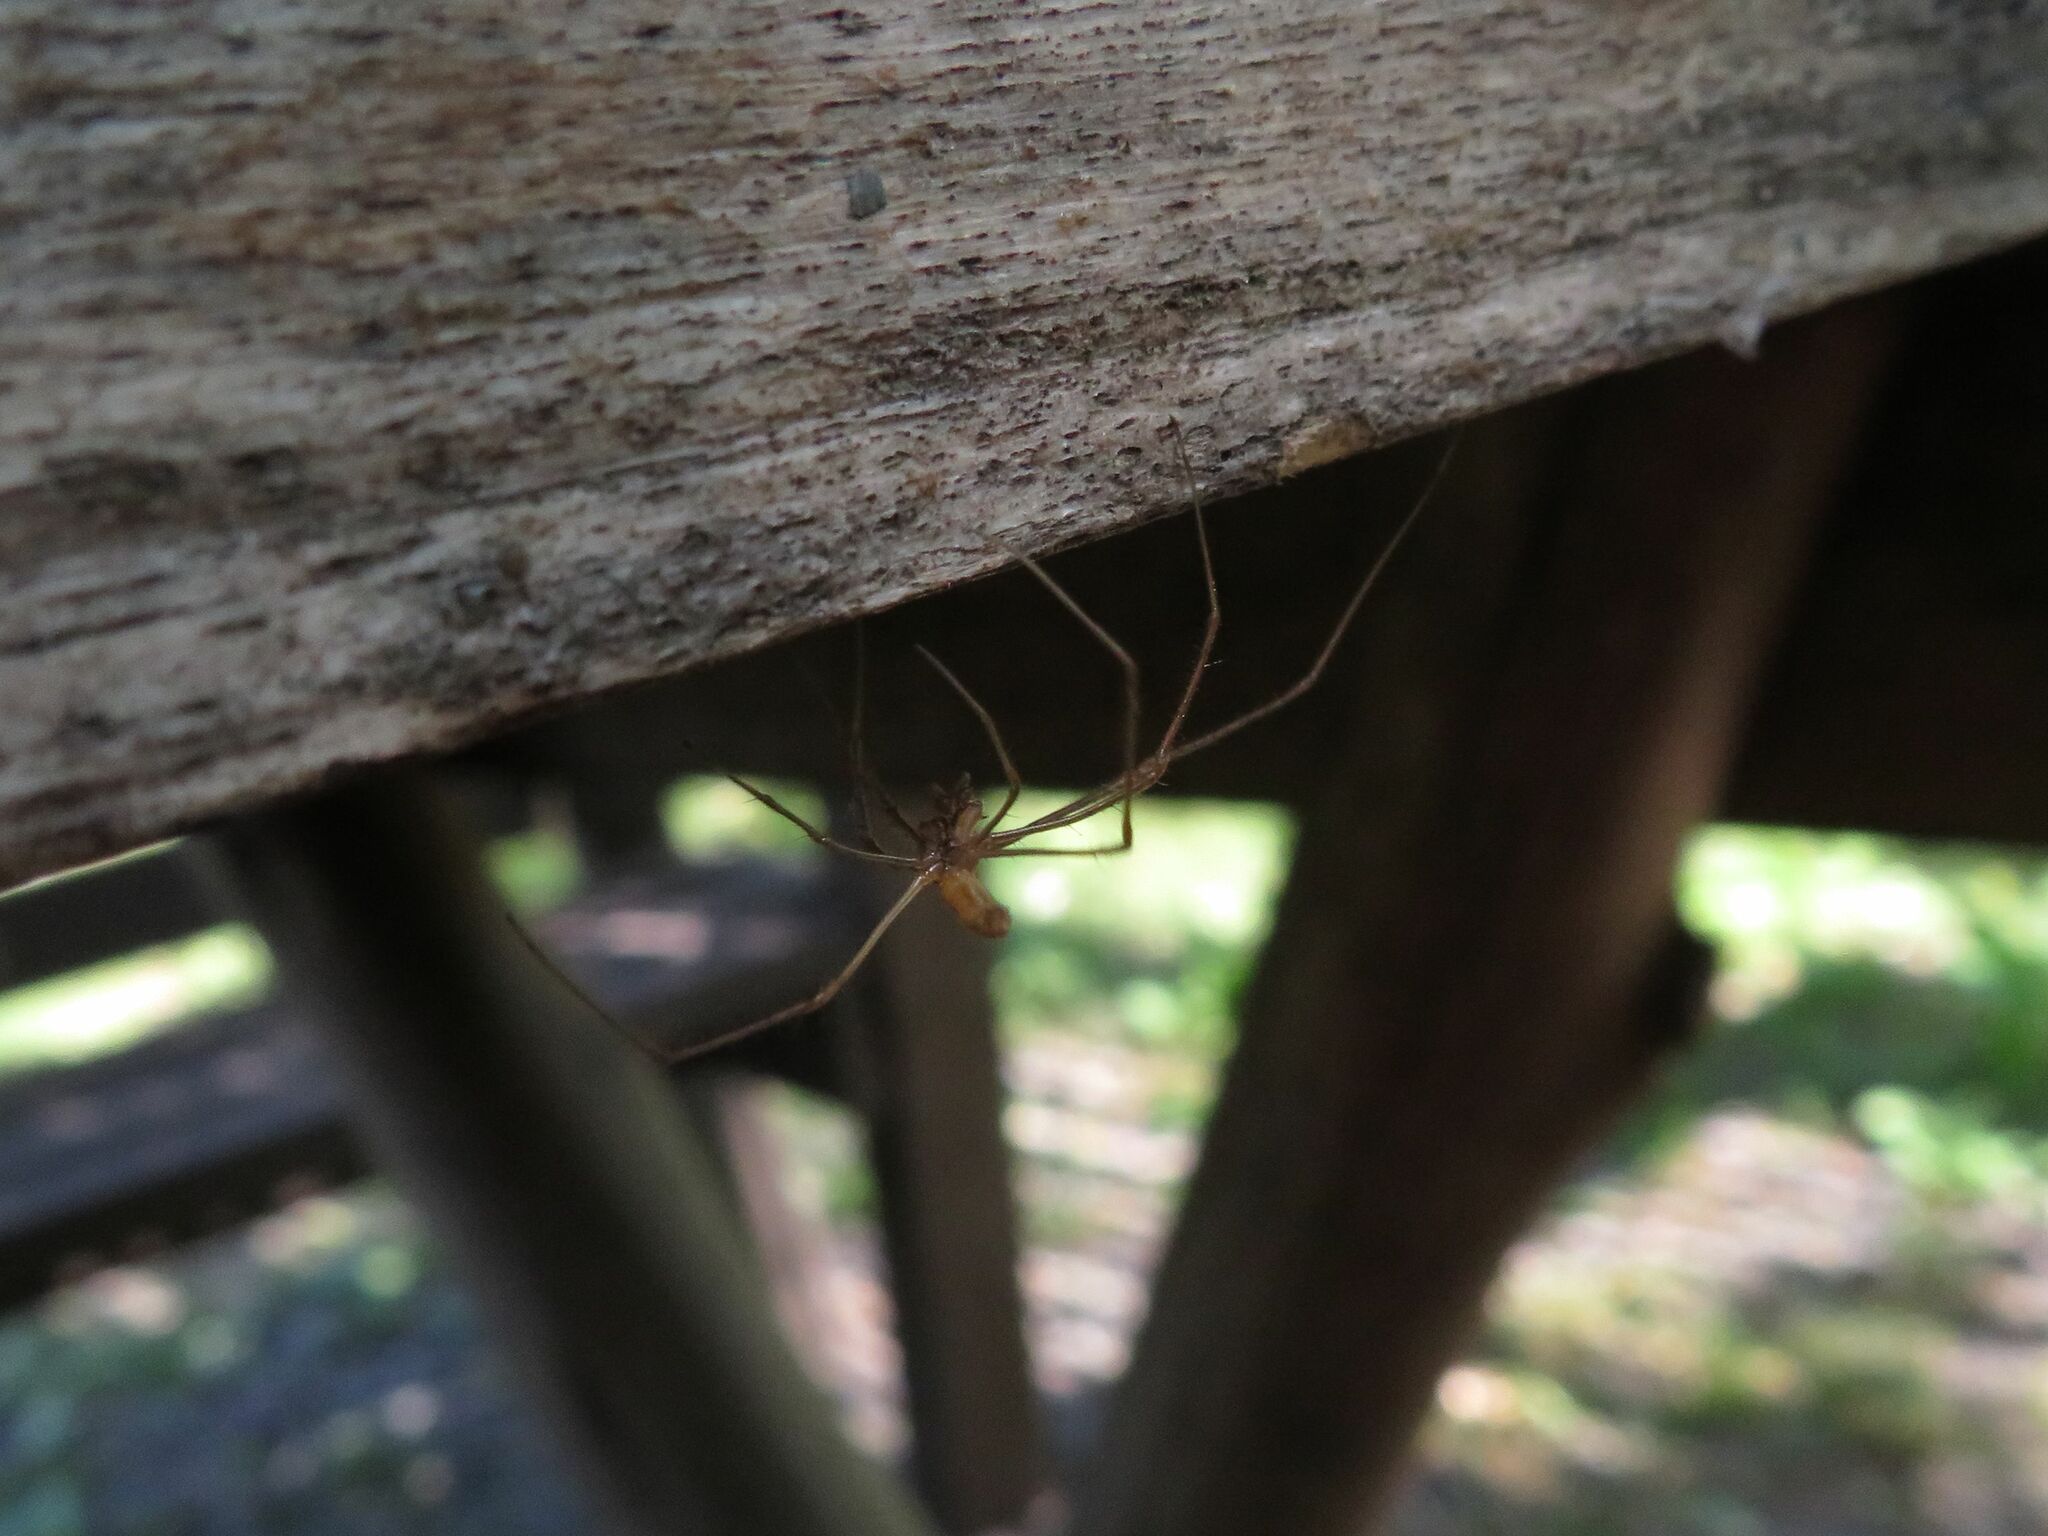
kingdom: Animalia
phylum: Arthropoda
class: Arachnida
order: Araneae
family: Tetragnathidae
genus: Tetragnatha
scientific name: Tetragnatha
